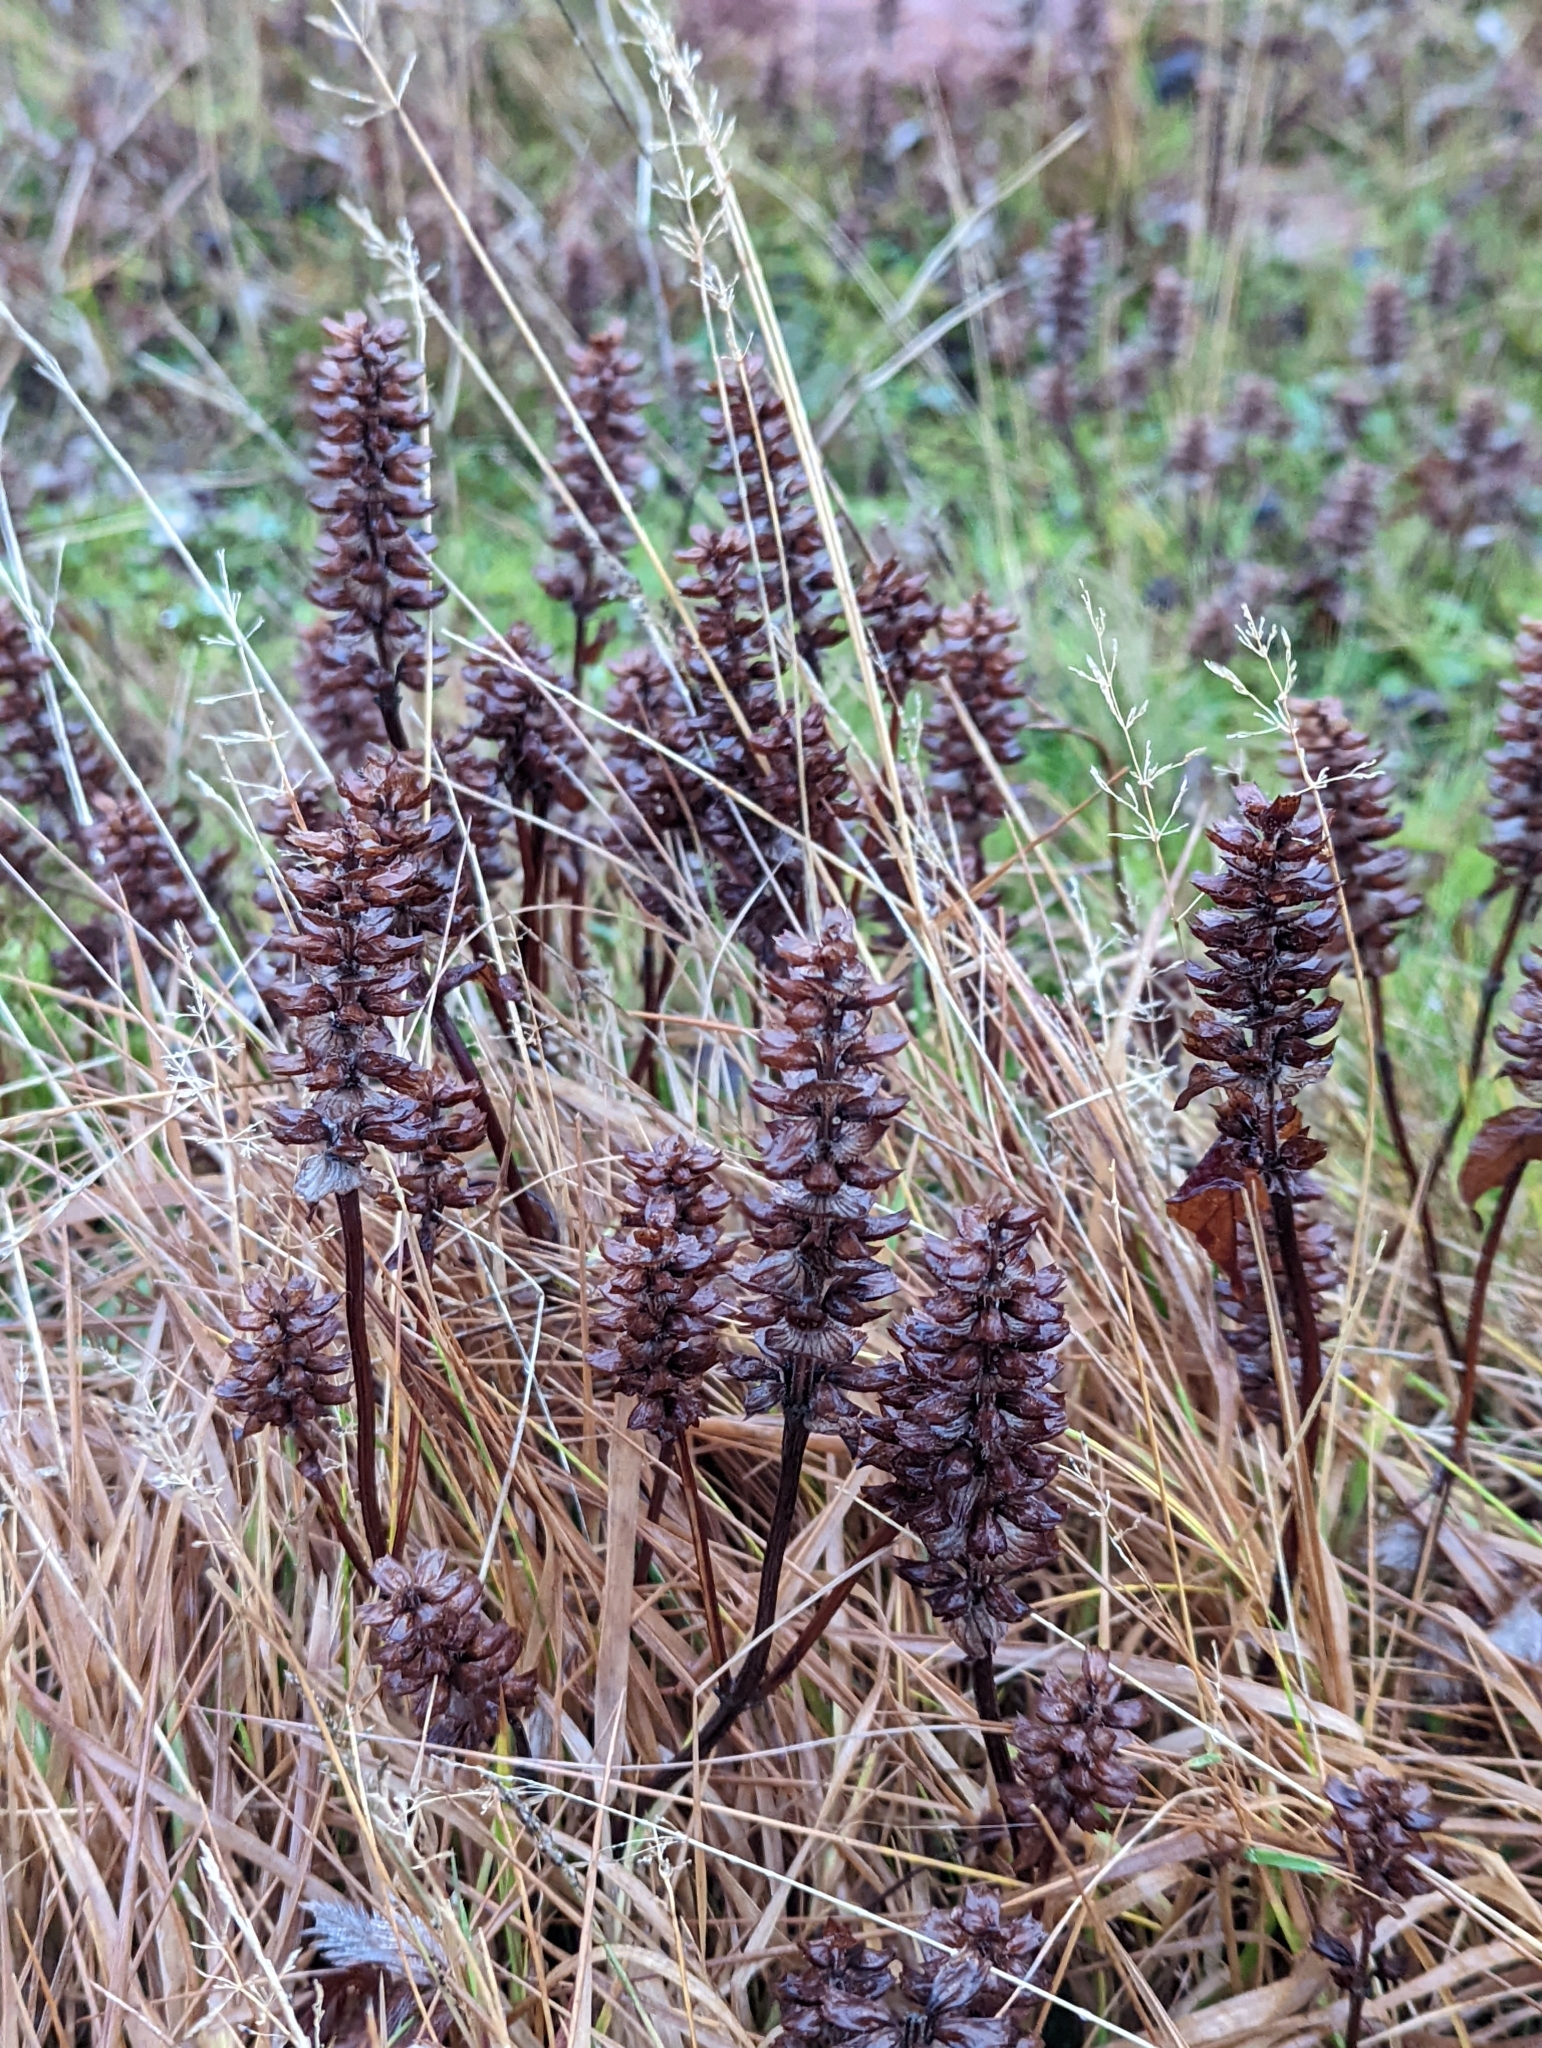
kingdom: Plantae
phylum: Tracheophyta
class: Magnoliopsida
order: Lamiales
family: Lamiaceae
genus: Prunella
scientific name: Prunella vulgaris
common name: Heal-all
